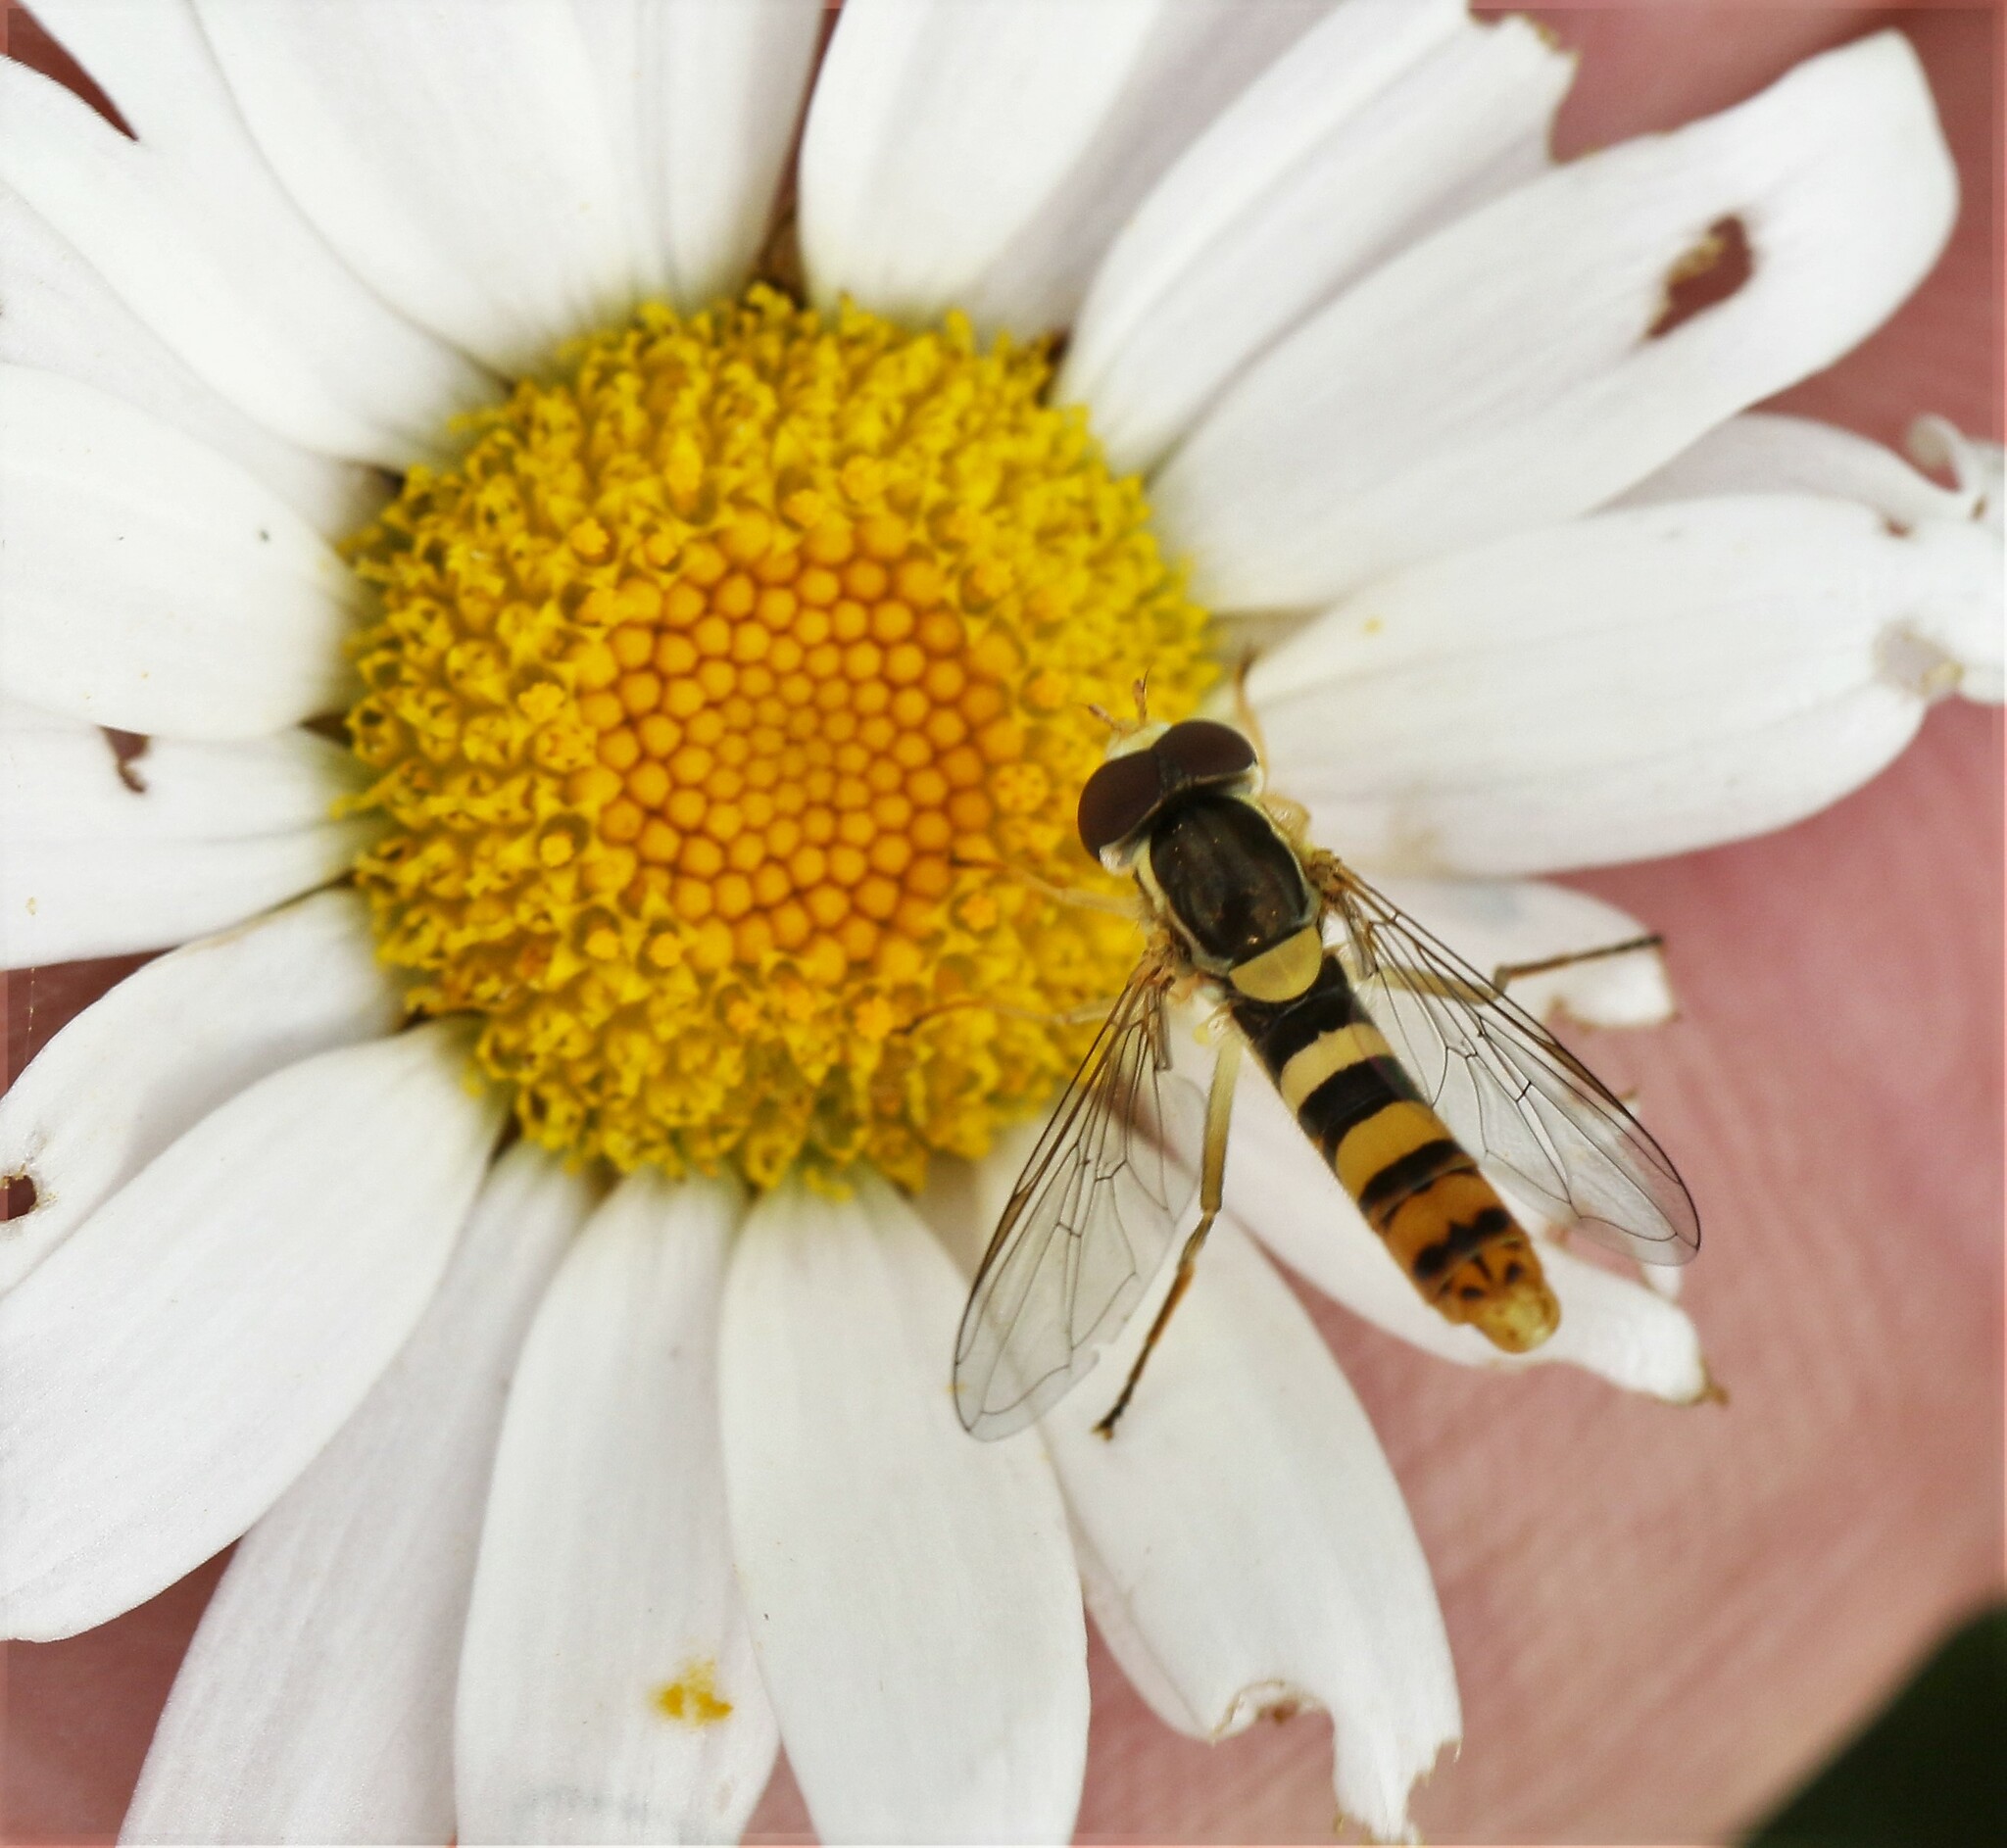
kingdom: Animalia
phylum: Arthropoda
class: Insecta
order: Diptera
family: Syrphidae
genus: Sphaerophoria
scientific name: Sphaerophoria philantha
